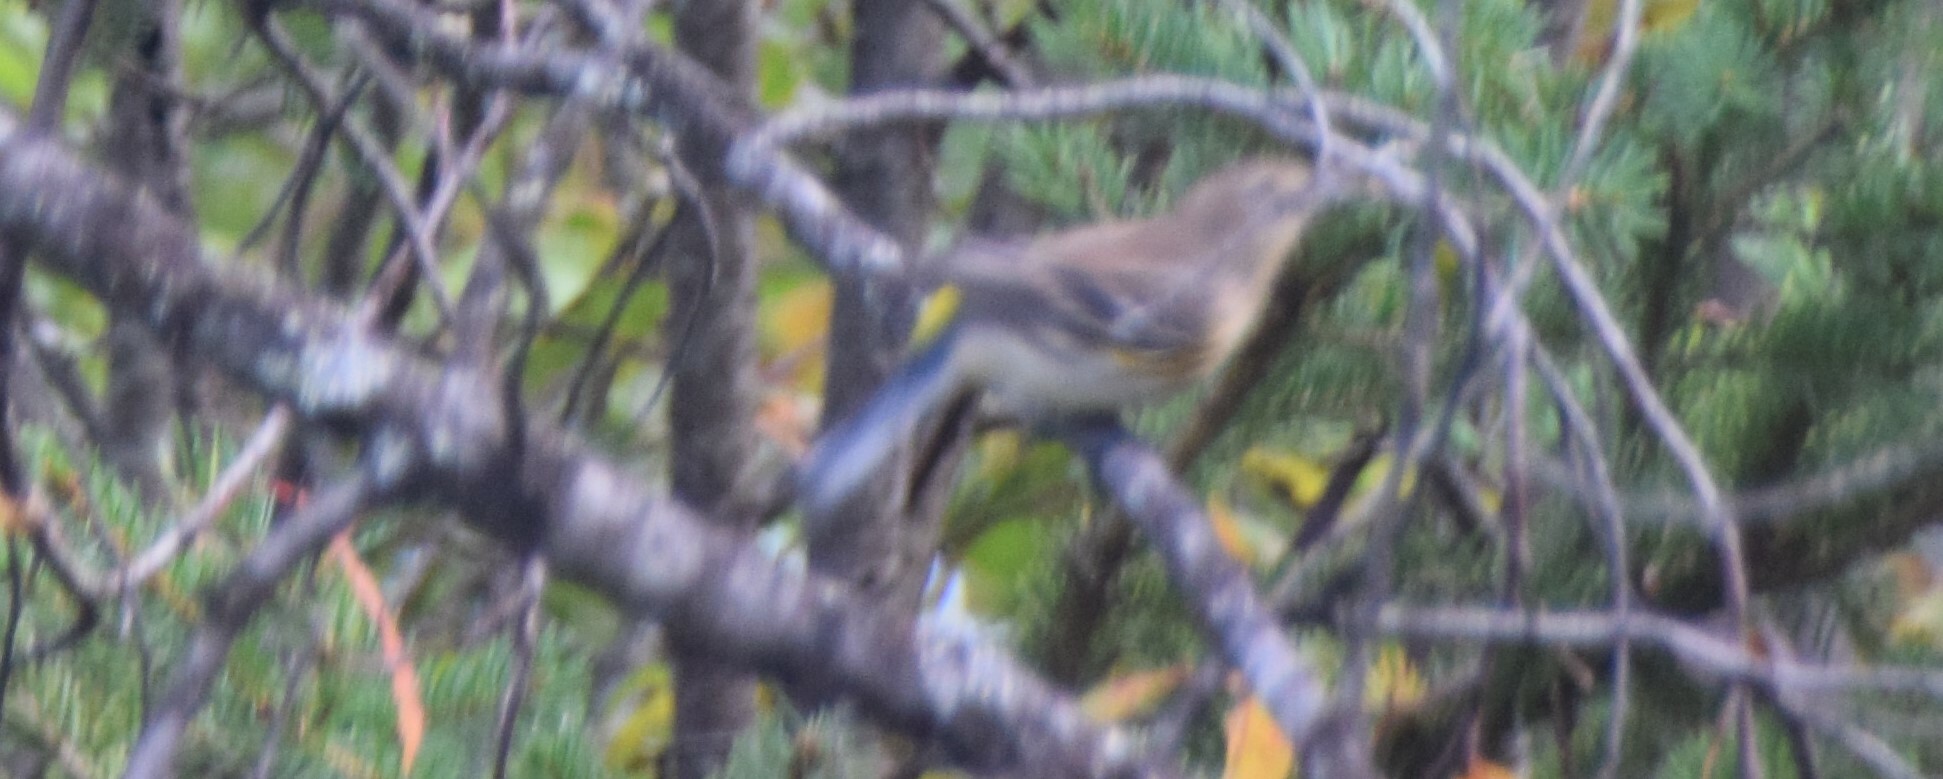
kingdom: Animalia
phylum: Chordata
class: Aves
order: Passeriformes
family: Parulidae
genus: Setophaga
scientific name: Setophaga coronata
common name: Myrtle warbler
